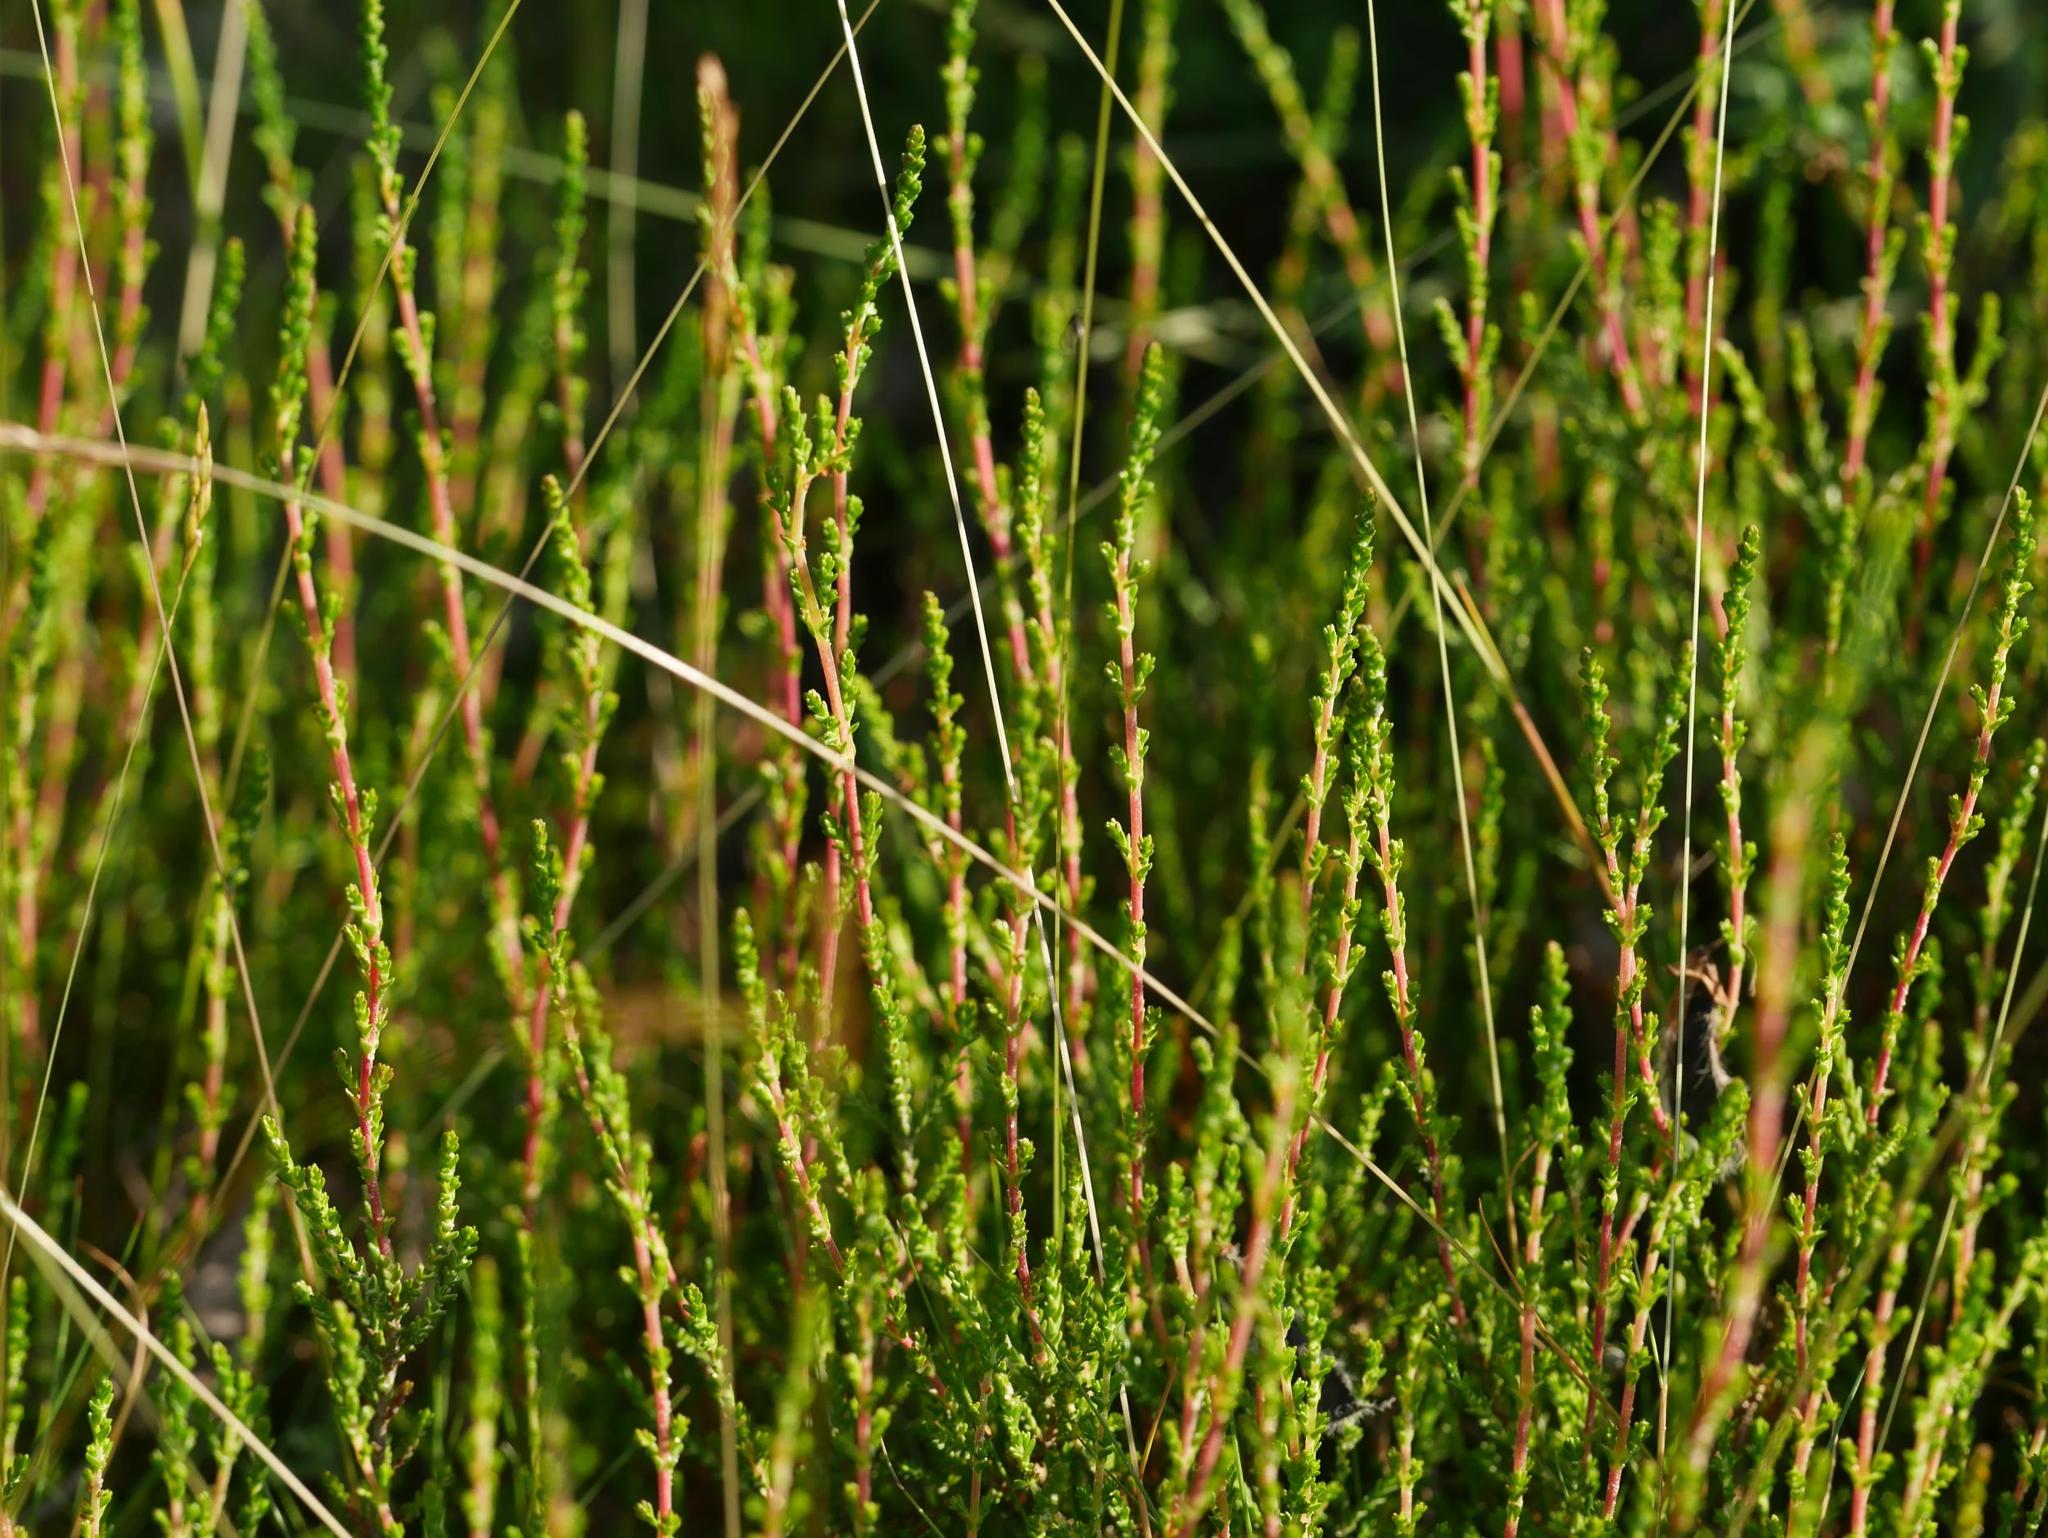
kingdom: Plantae
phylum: Tracheophyta
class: Magnoliopsida
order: Ericales
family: Ericaceae
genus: Calluna
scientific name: Calluna vulgaris
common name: Heather
